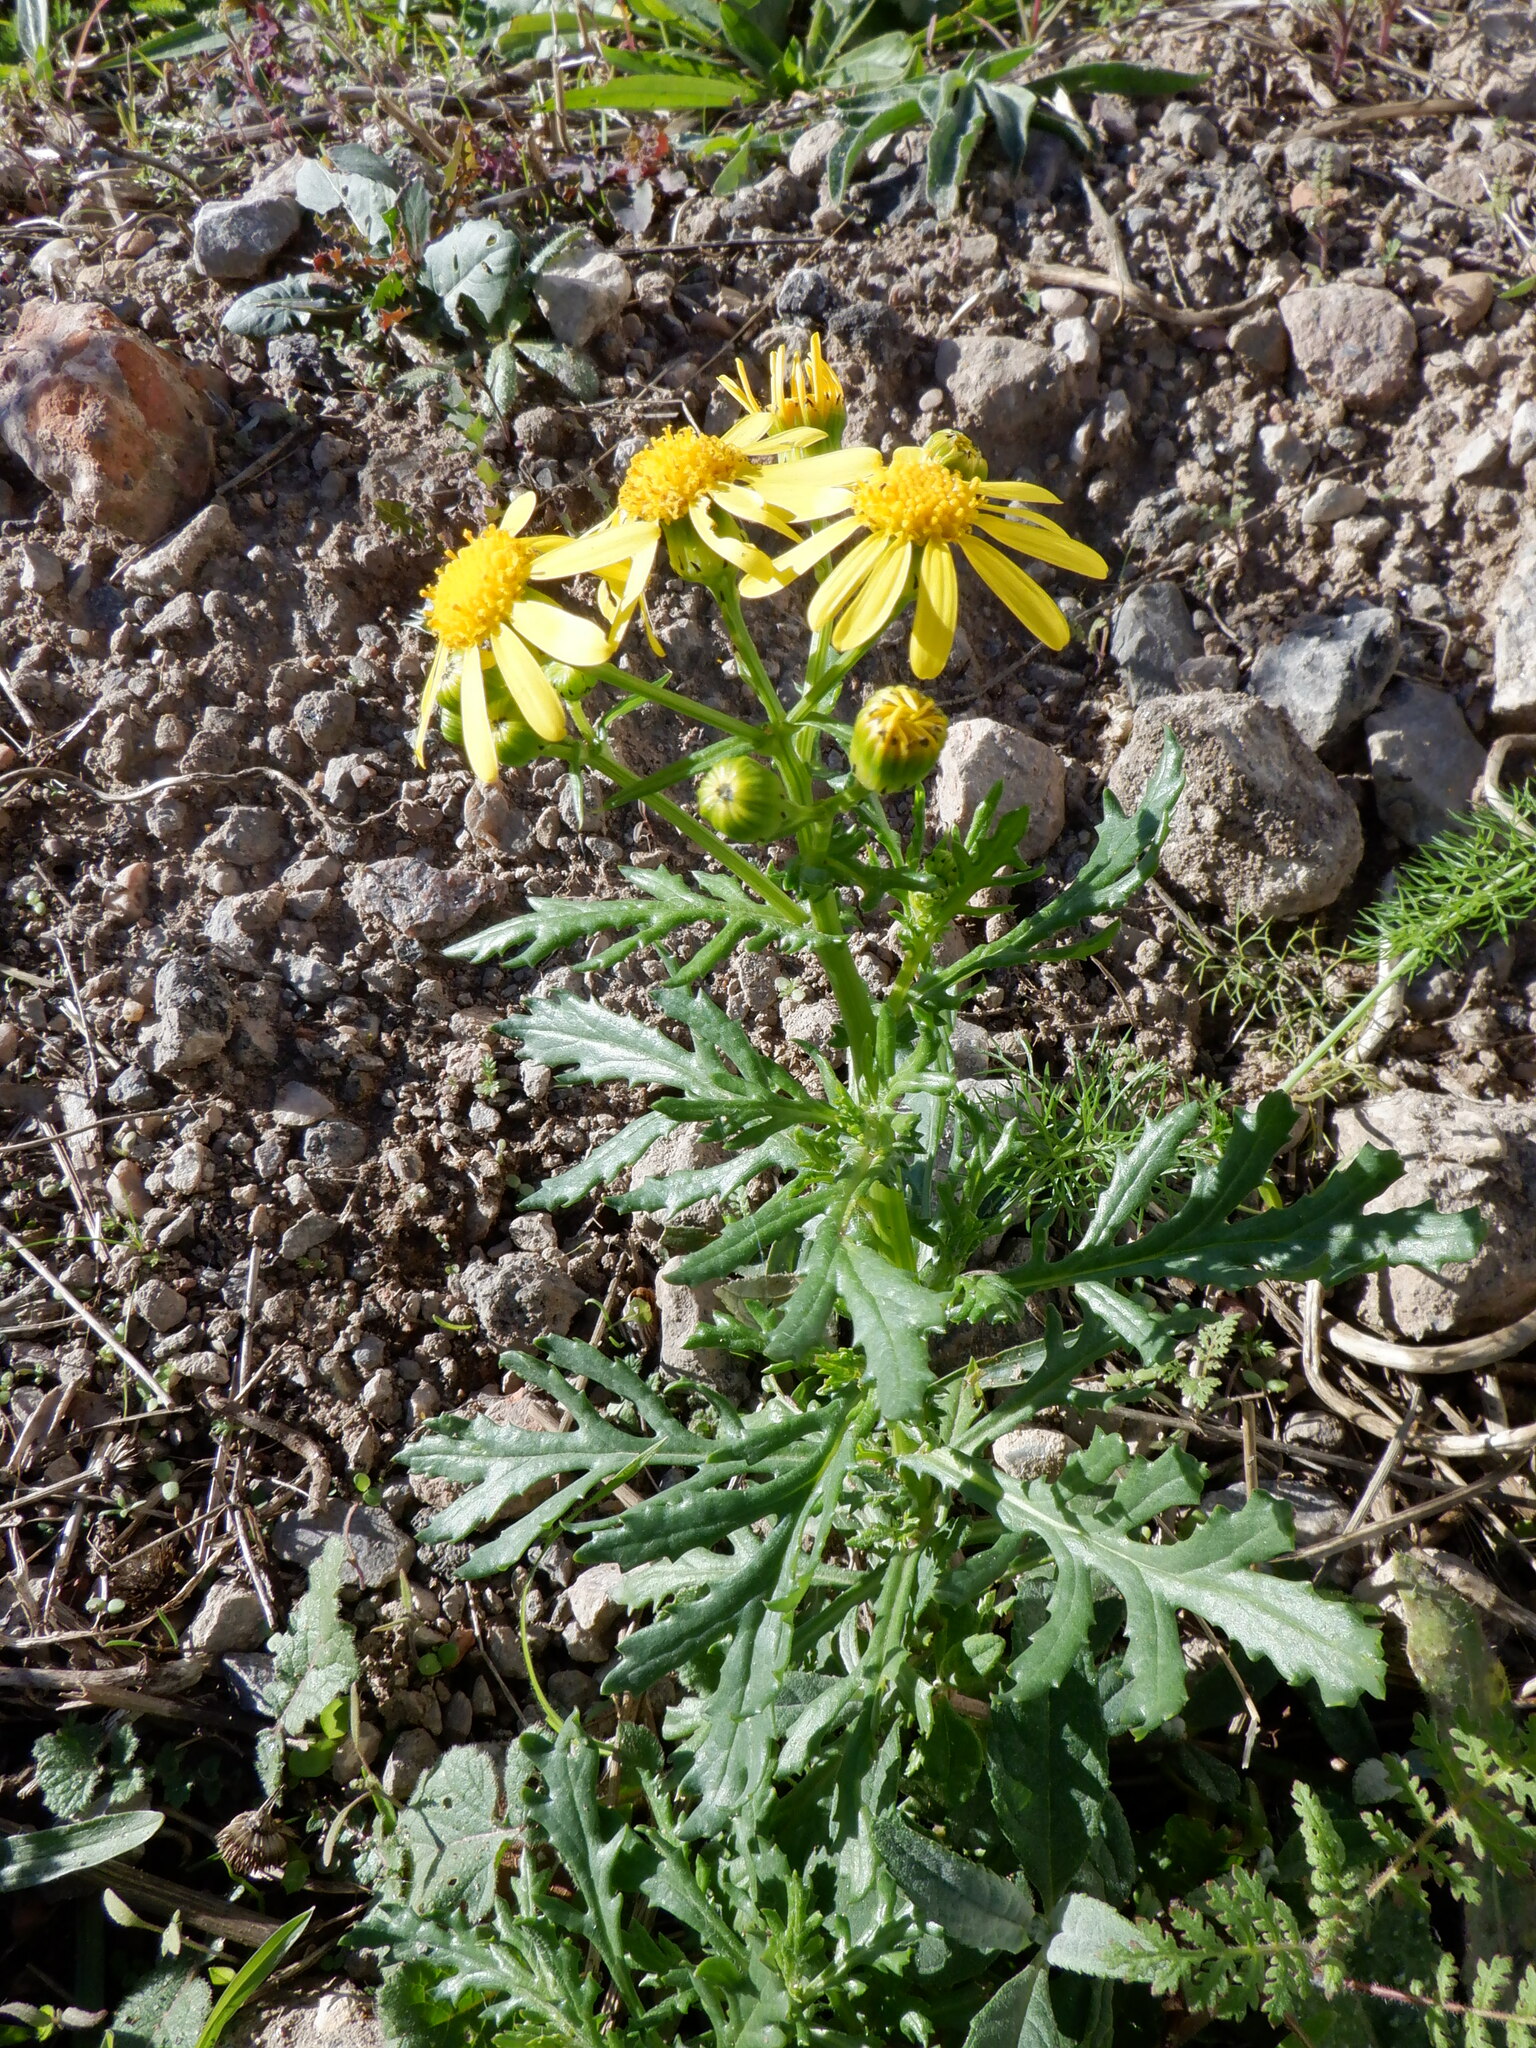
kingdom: Plantae
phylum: Tracheophyta
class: Magnoliopsida
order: Asterales
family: Asteraceae
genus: Senecio
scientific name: Senecio squalidus
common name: Oxford ragwort
